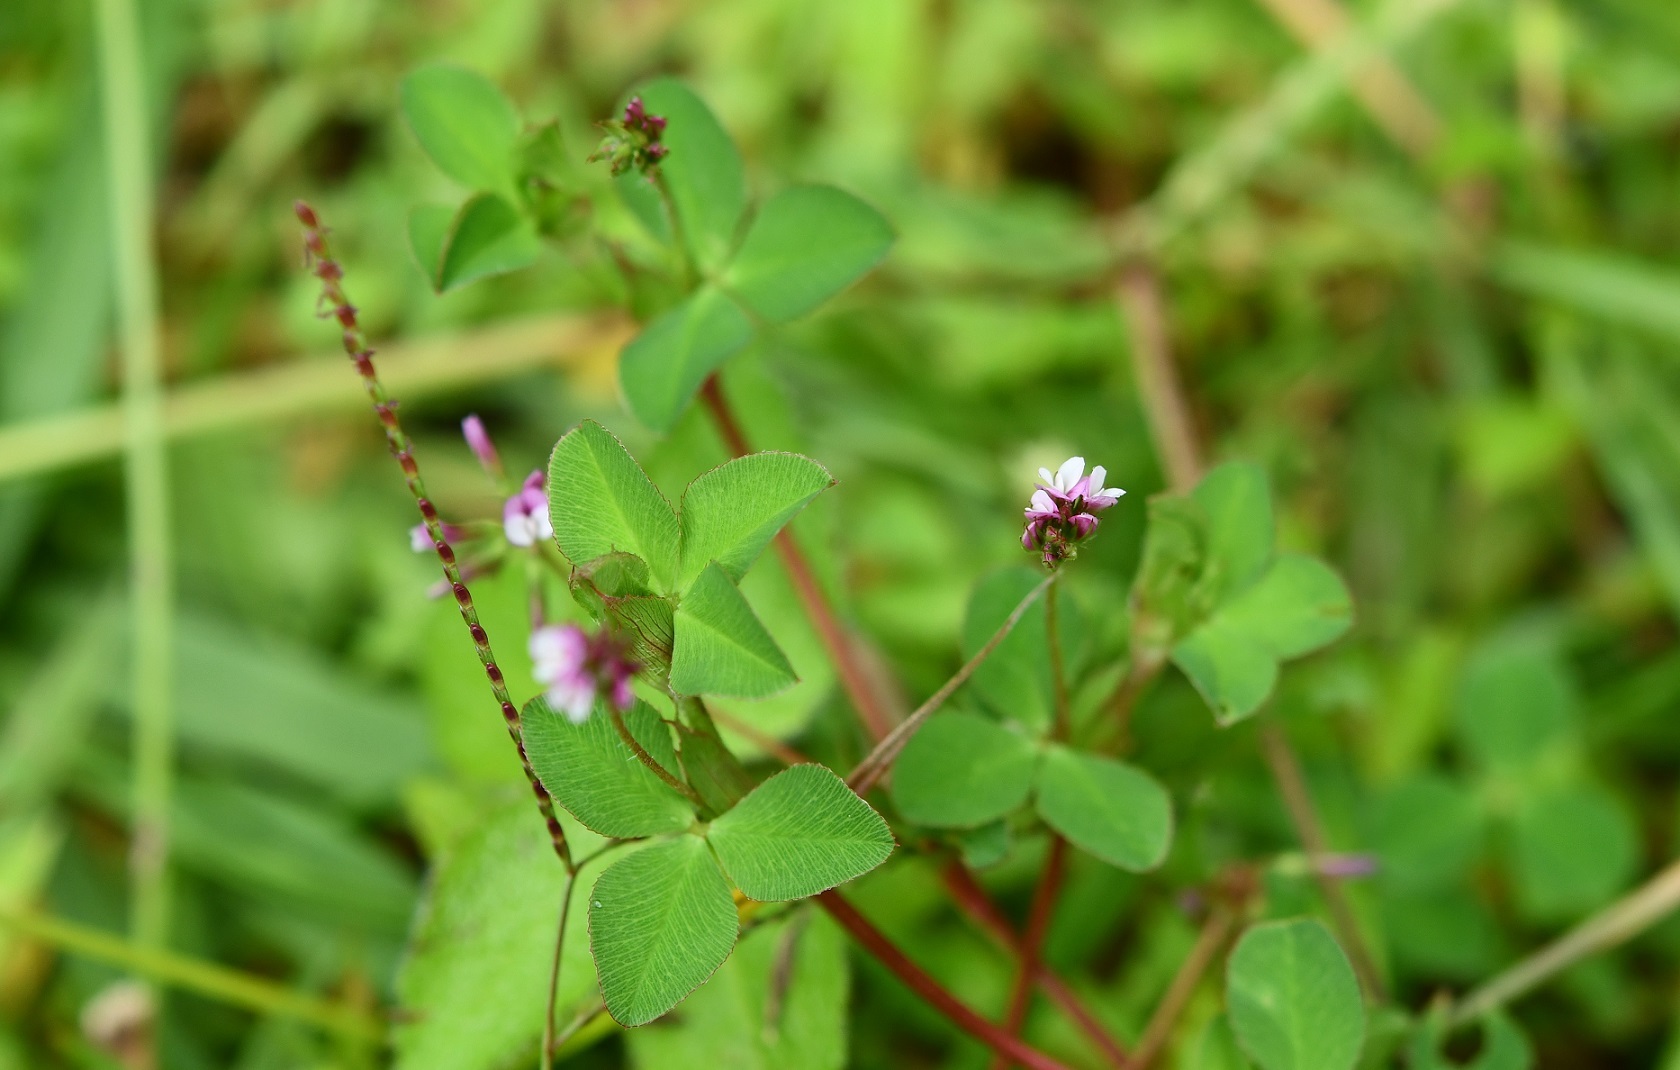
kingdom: Plantae
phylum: Tracheophyta
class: Magnoliopsida
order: Fabales
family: Fabaceae
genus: Trifolium
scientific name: Trifolium amabile
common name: Aztec clover
